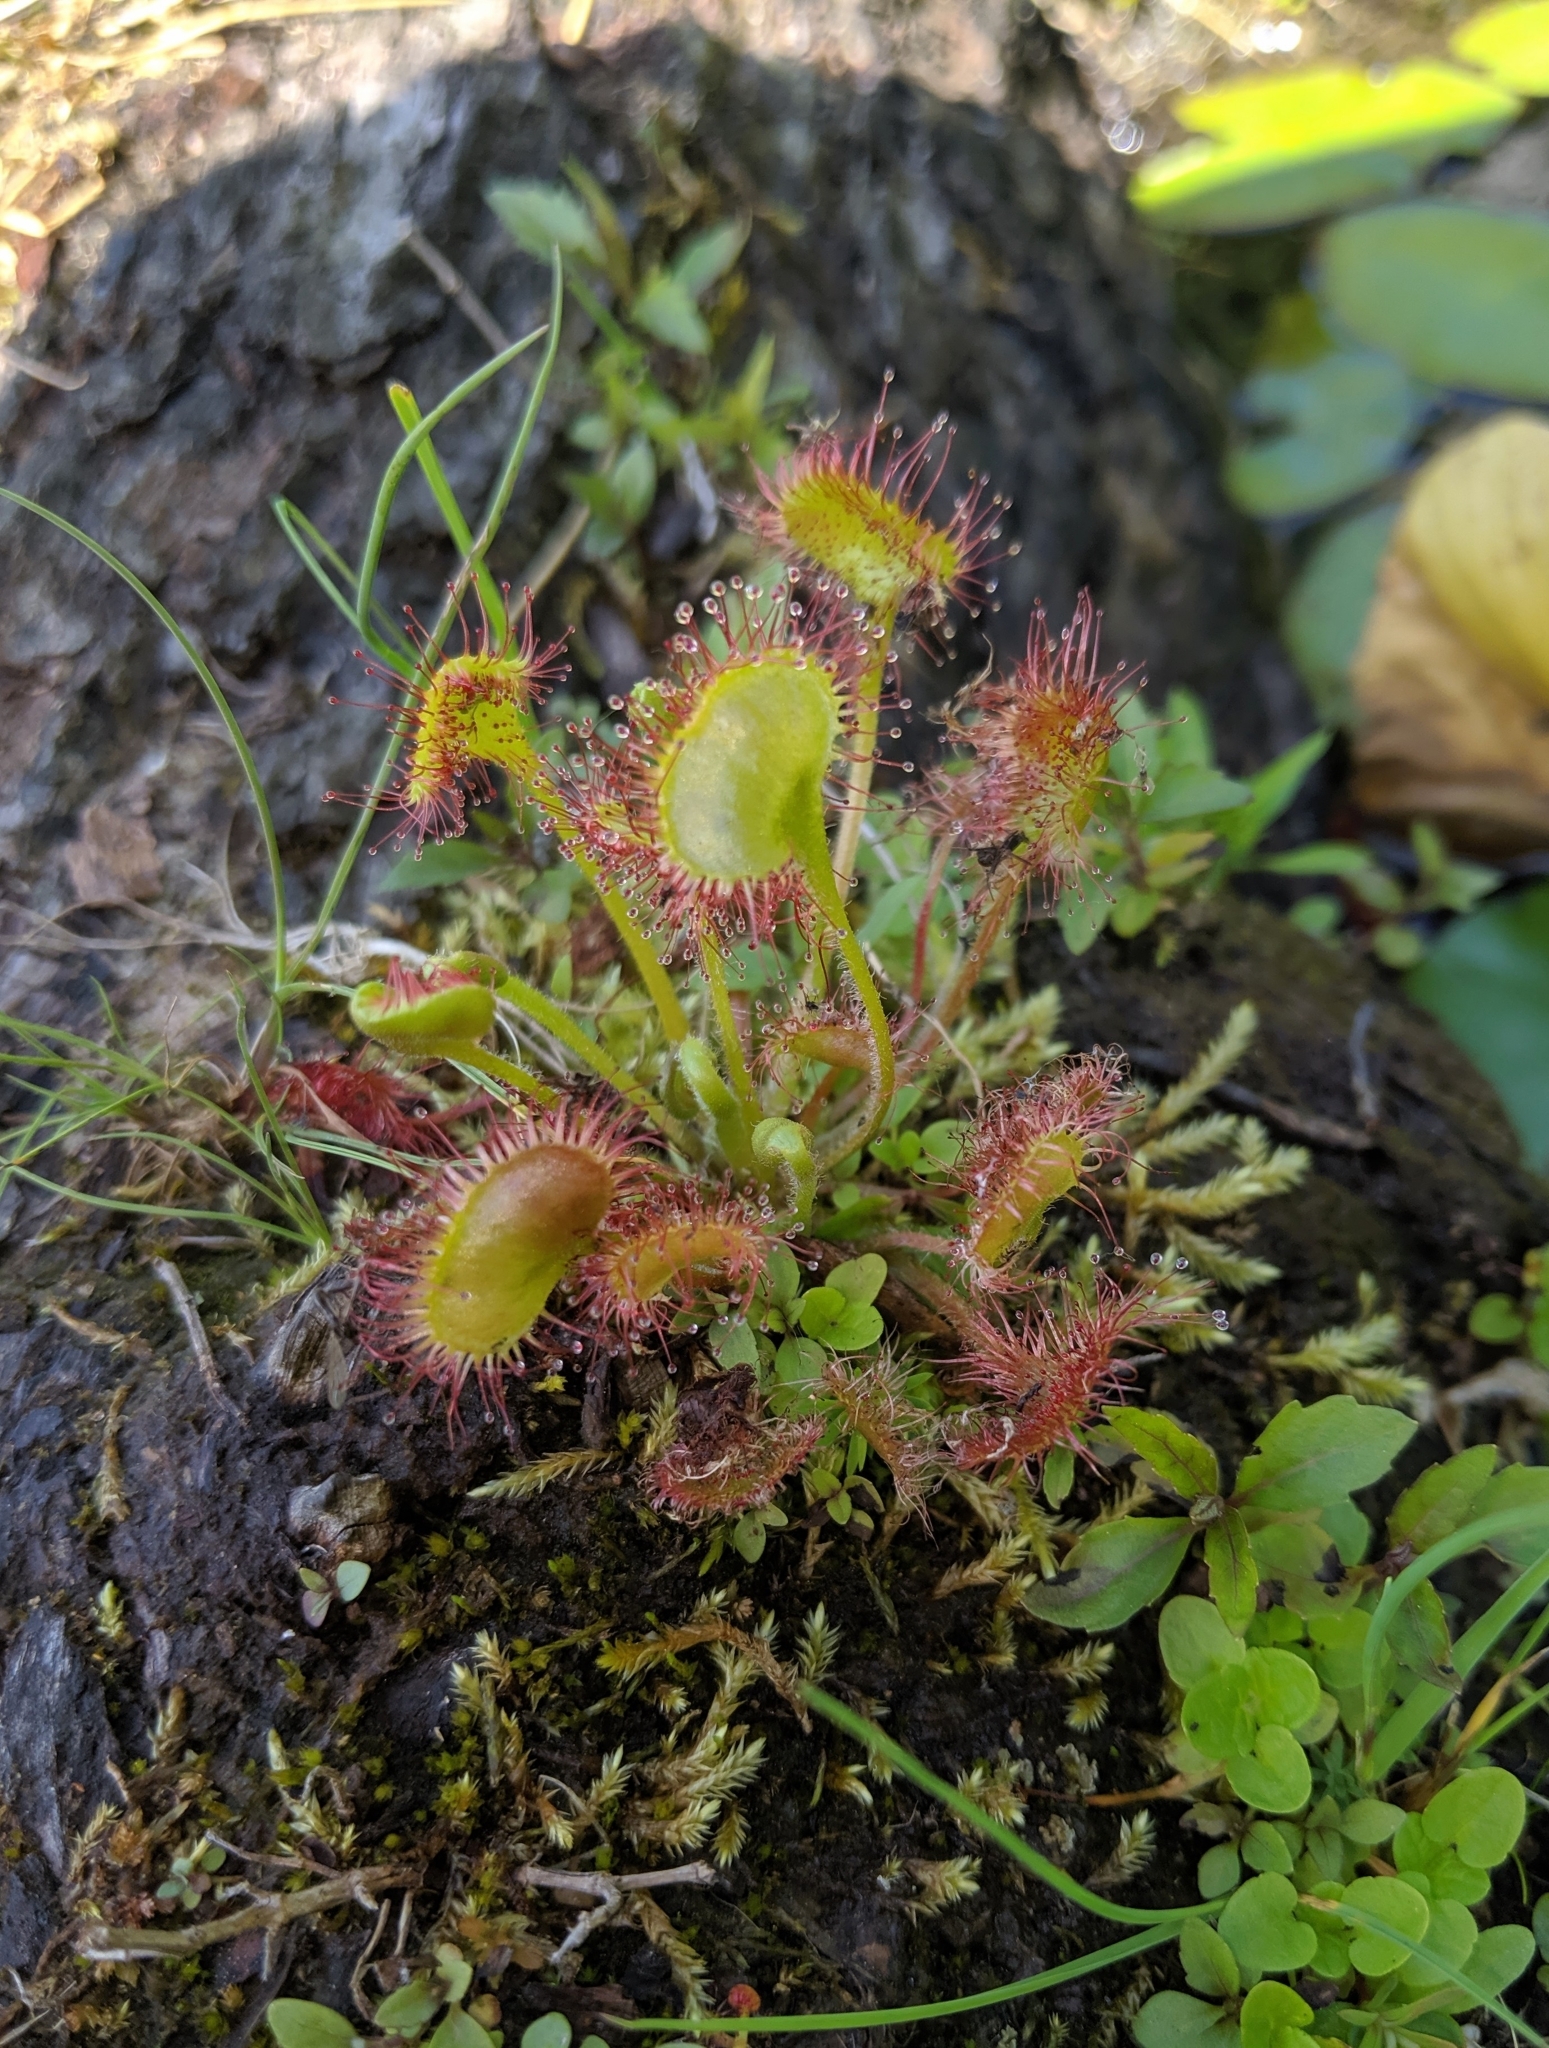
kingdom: Plantae
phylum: Tracheophyta
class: Magnoliopsida
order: Caryophyllales
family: Droseraceae
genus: Drosera
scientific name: Drosera rotundifolia
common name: Round-leaved sundew
